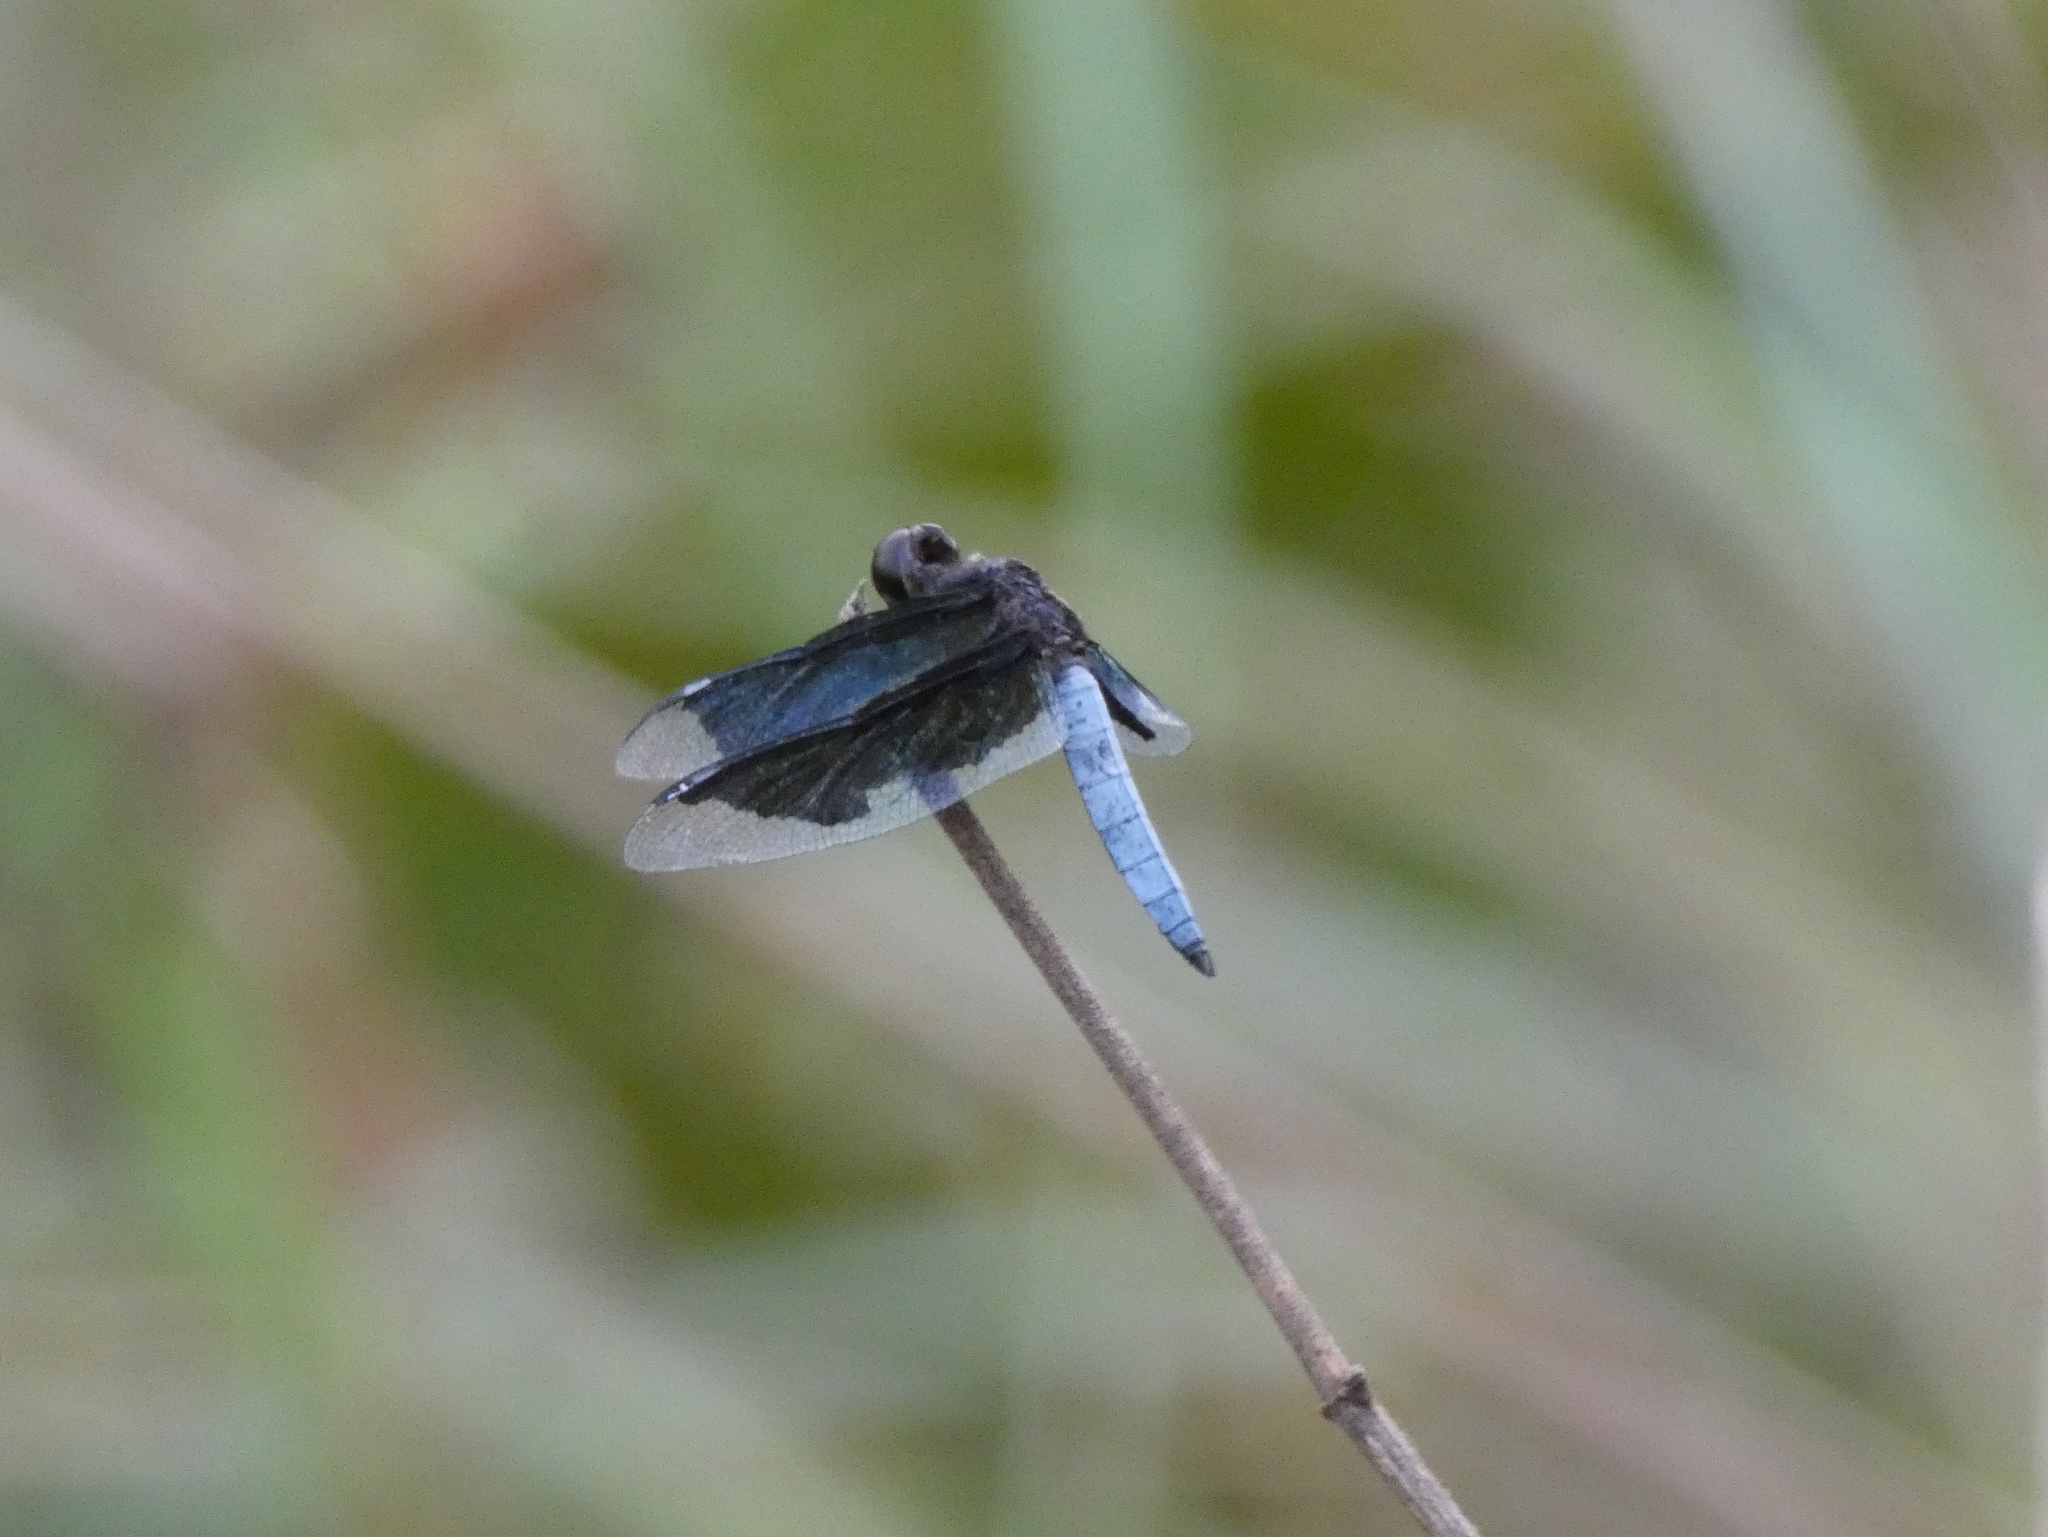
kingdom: Animalia
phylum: Arthropoda
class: Insecta
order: Odonata
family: Libellulidae
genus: Palpopleura
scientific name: Palpopleura lucia
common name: Lucia widow
